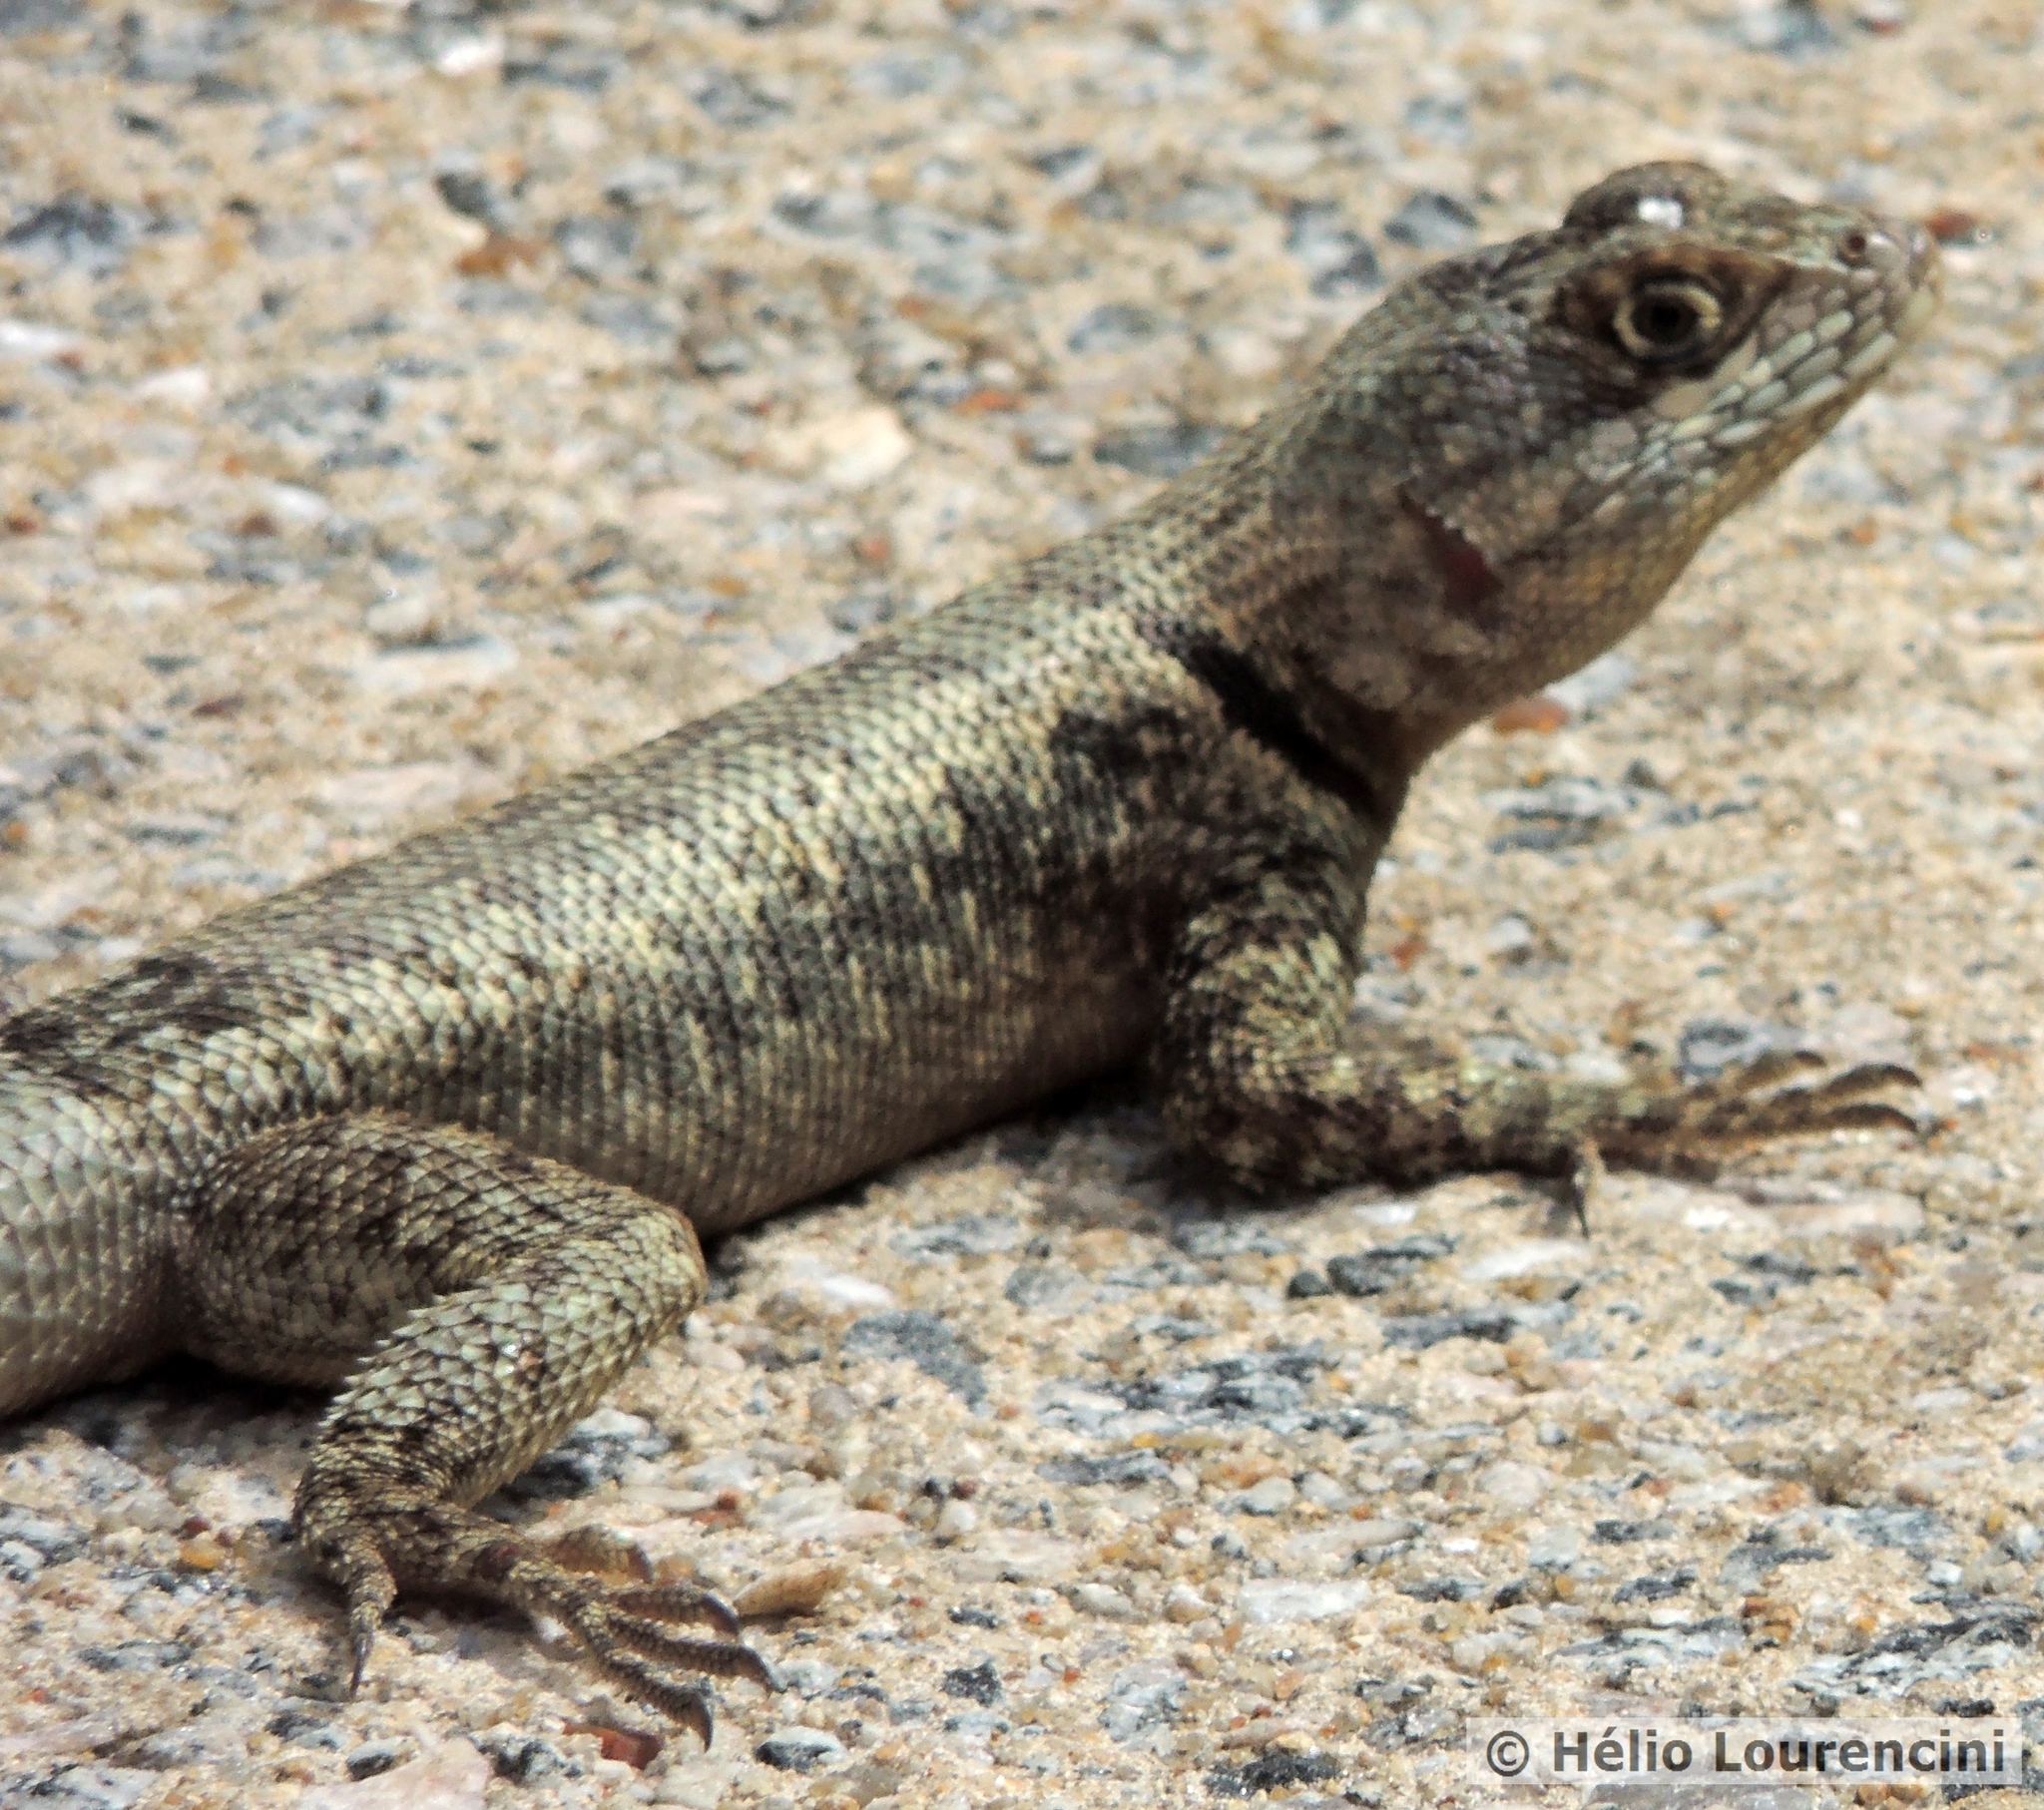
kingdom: Animalia
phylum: Chordata
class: Squamata
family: Tropiduridae
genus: Tropidurus
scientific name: Tropidurus hispidus
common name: Peters' lava lizard
